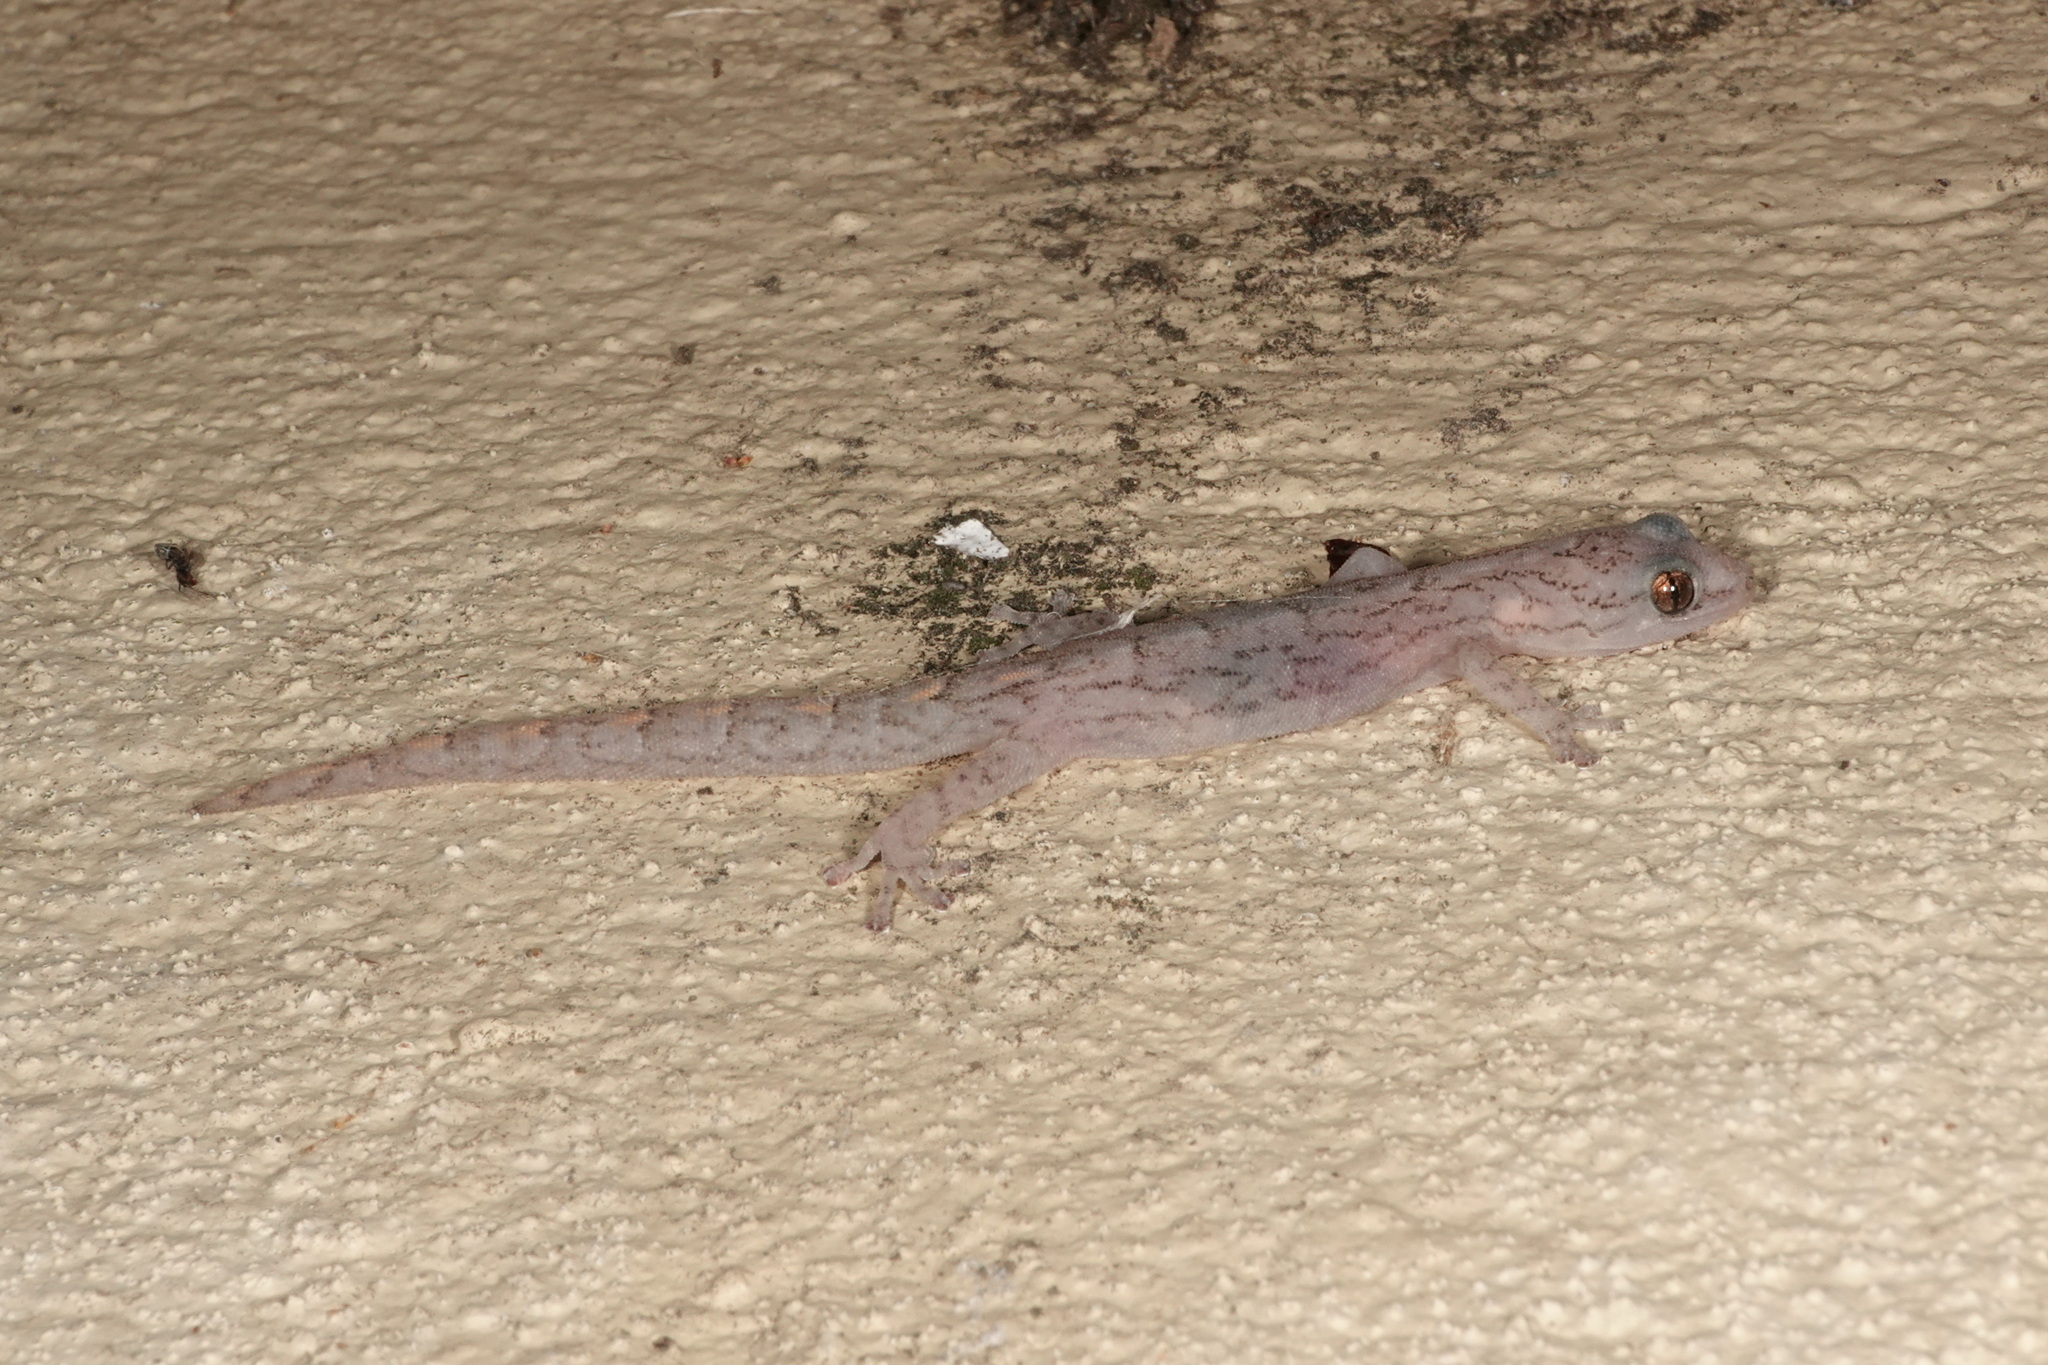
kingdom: Animalia
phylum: Chordata
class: Squamata
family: Gekkonidae
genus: Christinus
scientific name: Christinus marmoratus
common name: Marbled gecko
